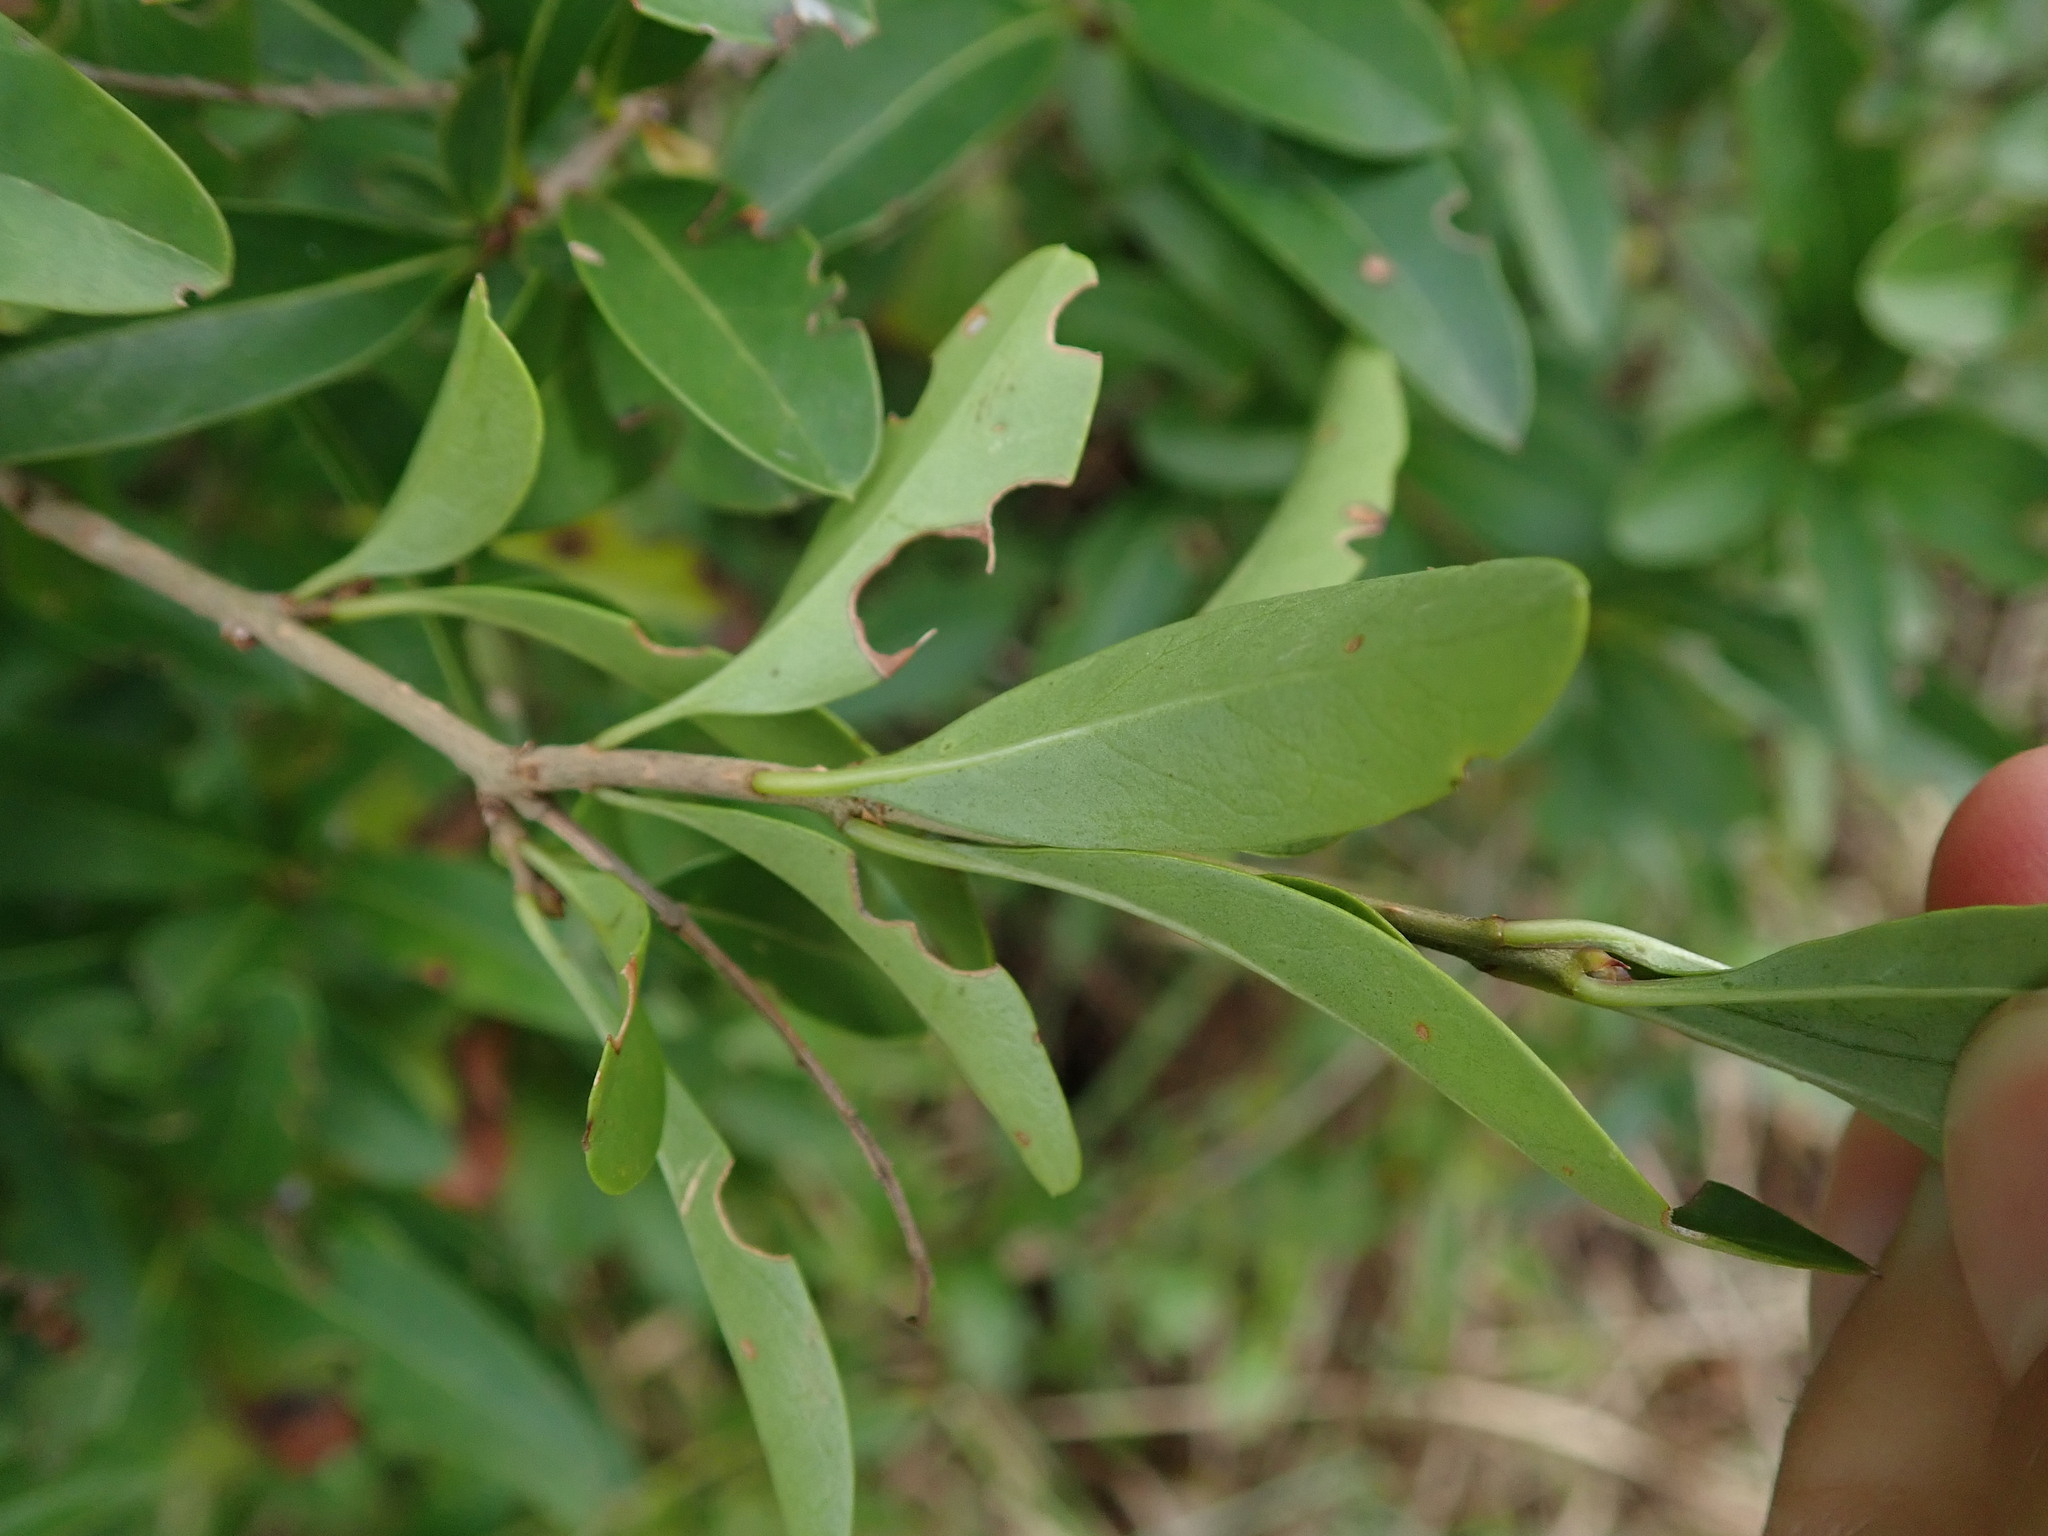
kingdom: Plantae
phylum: Tracheophyta
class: Magnoliopsida
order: Lamiales
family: Oleaceae
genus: Ligustrum
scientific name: Ligustrum vulgare
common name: Wild privet
